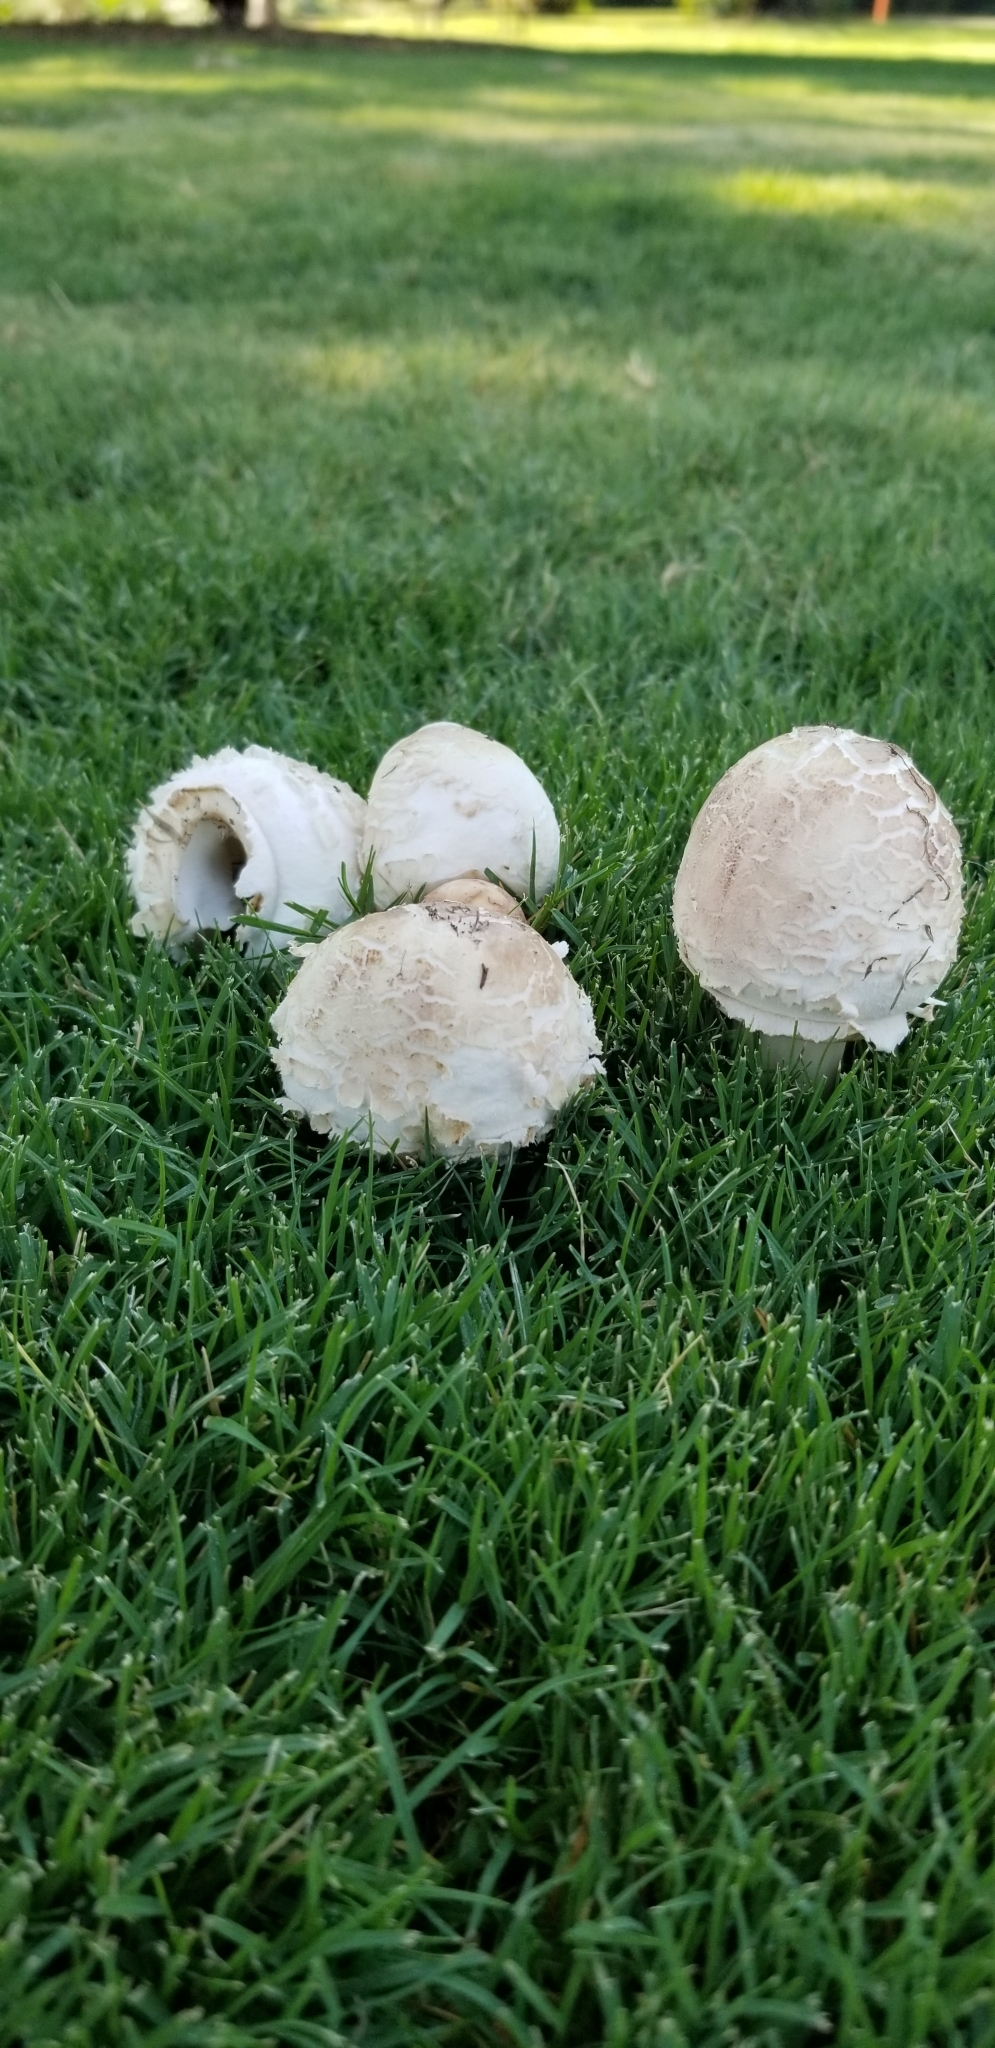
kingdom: Fungi
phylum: Basidiomycota
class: Agaricomycetes
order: Agaricales
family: Agaricaceae
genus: Chlorophyllum
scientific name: Chlorophyllum molybdites
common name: False parasol
